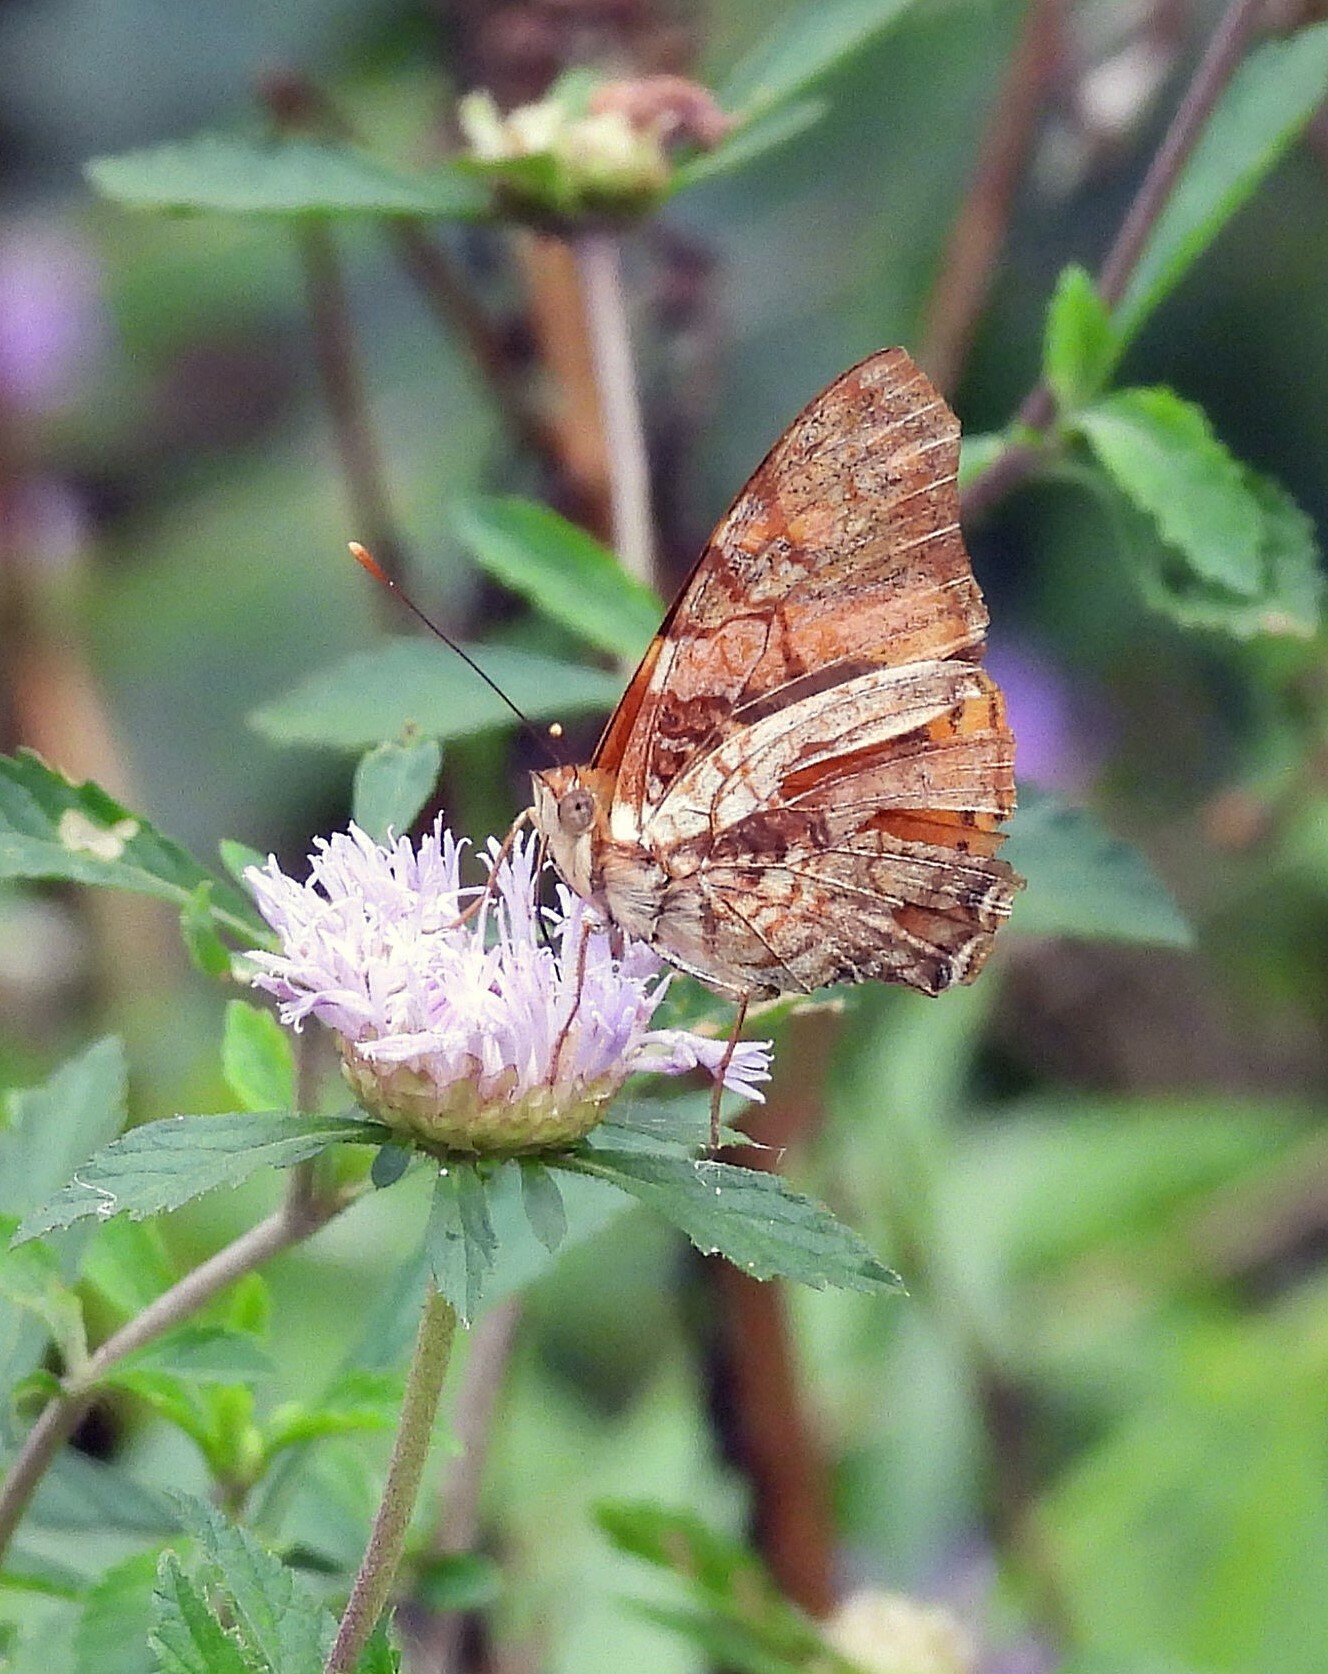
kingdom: Animalia
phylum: Arthropoda
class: Insecta
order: Lepidoptera
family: Nymphalidae
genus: Hypanartia
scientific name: Hypanartia lethe
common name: Orange mapwing
